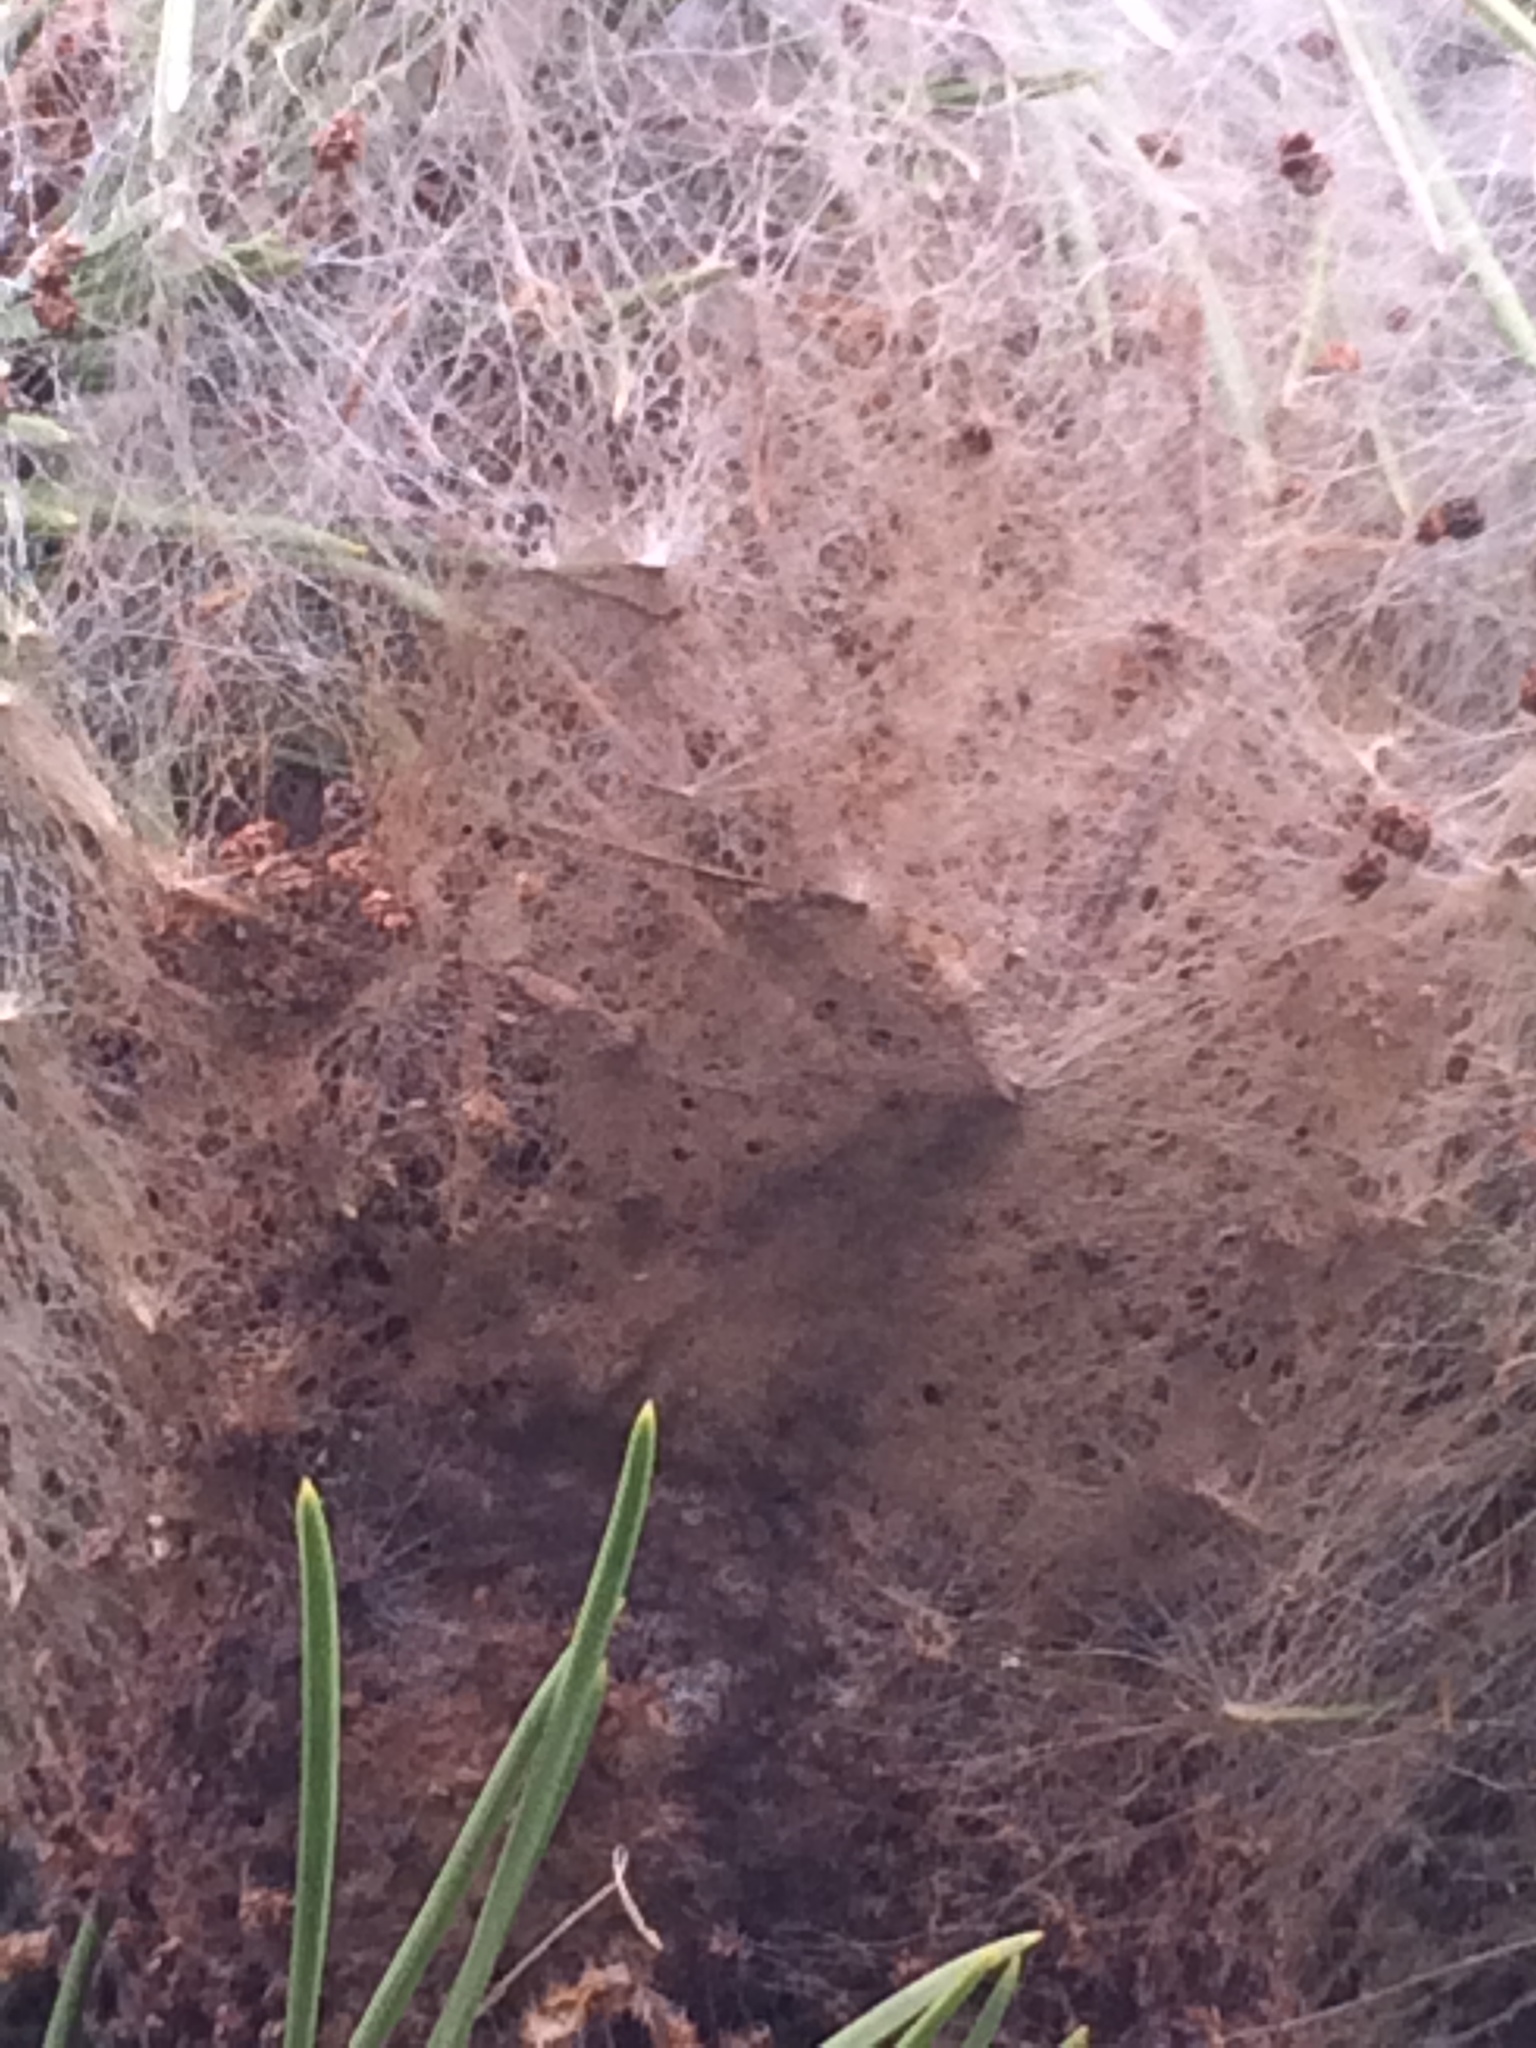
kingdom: Animalia
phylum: Arthropoda
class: Insecta
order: Lepidoptera
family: Notodontidae
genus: Thaumetopoea
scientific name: Thaumetopoea pityocampa
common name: Pine processionary
